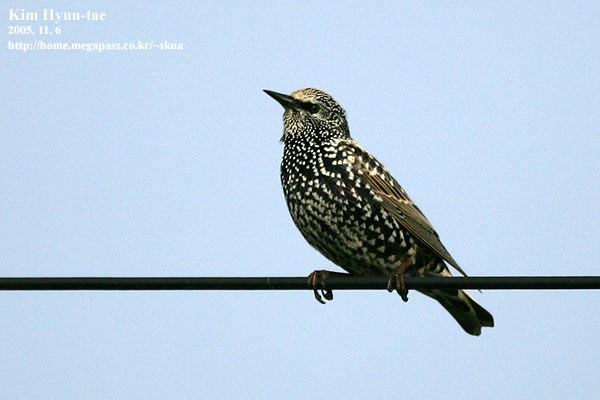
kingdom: Animalia
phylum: Chordata
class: Aves
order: Passeriformes
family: Sturnidae
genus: Sturnus
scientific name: Sturnus vulgaris
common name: Common starling
